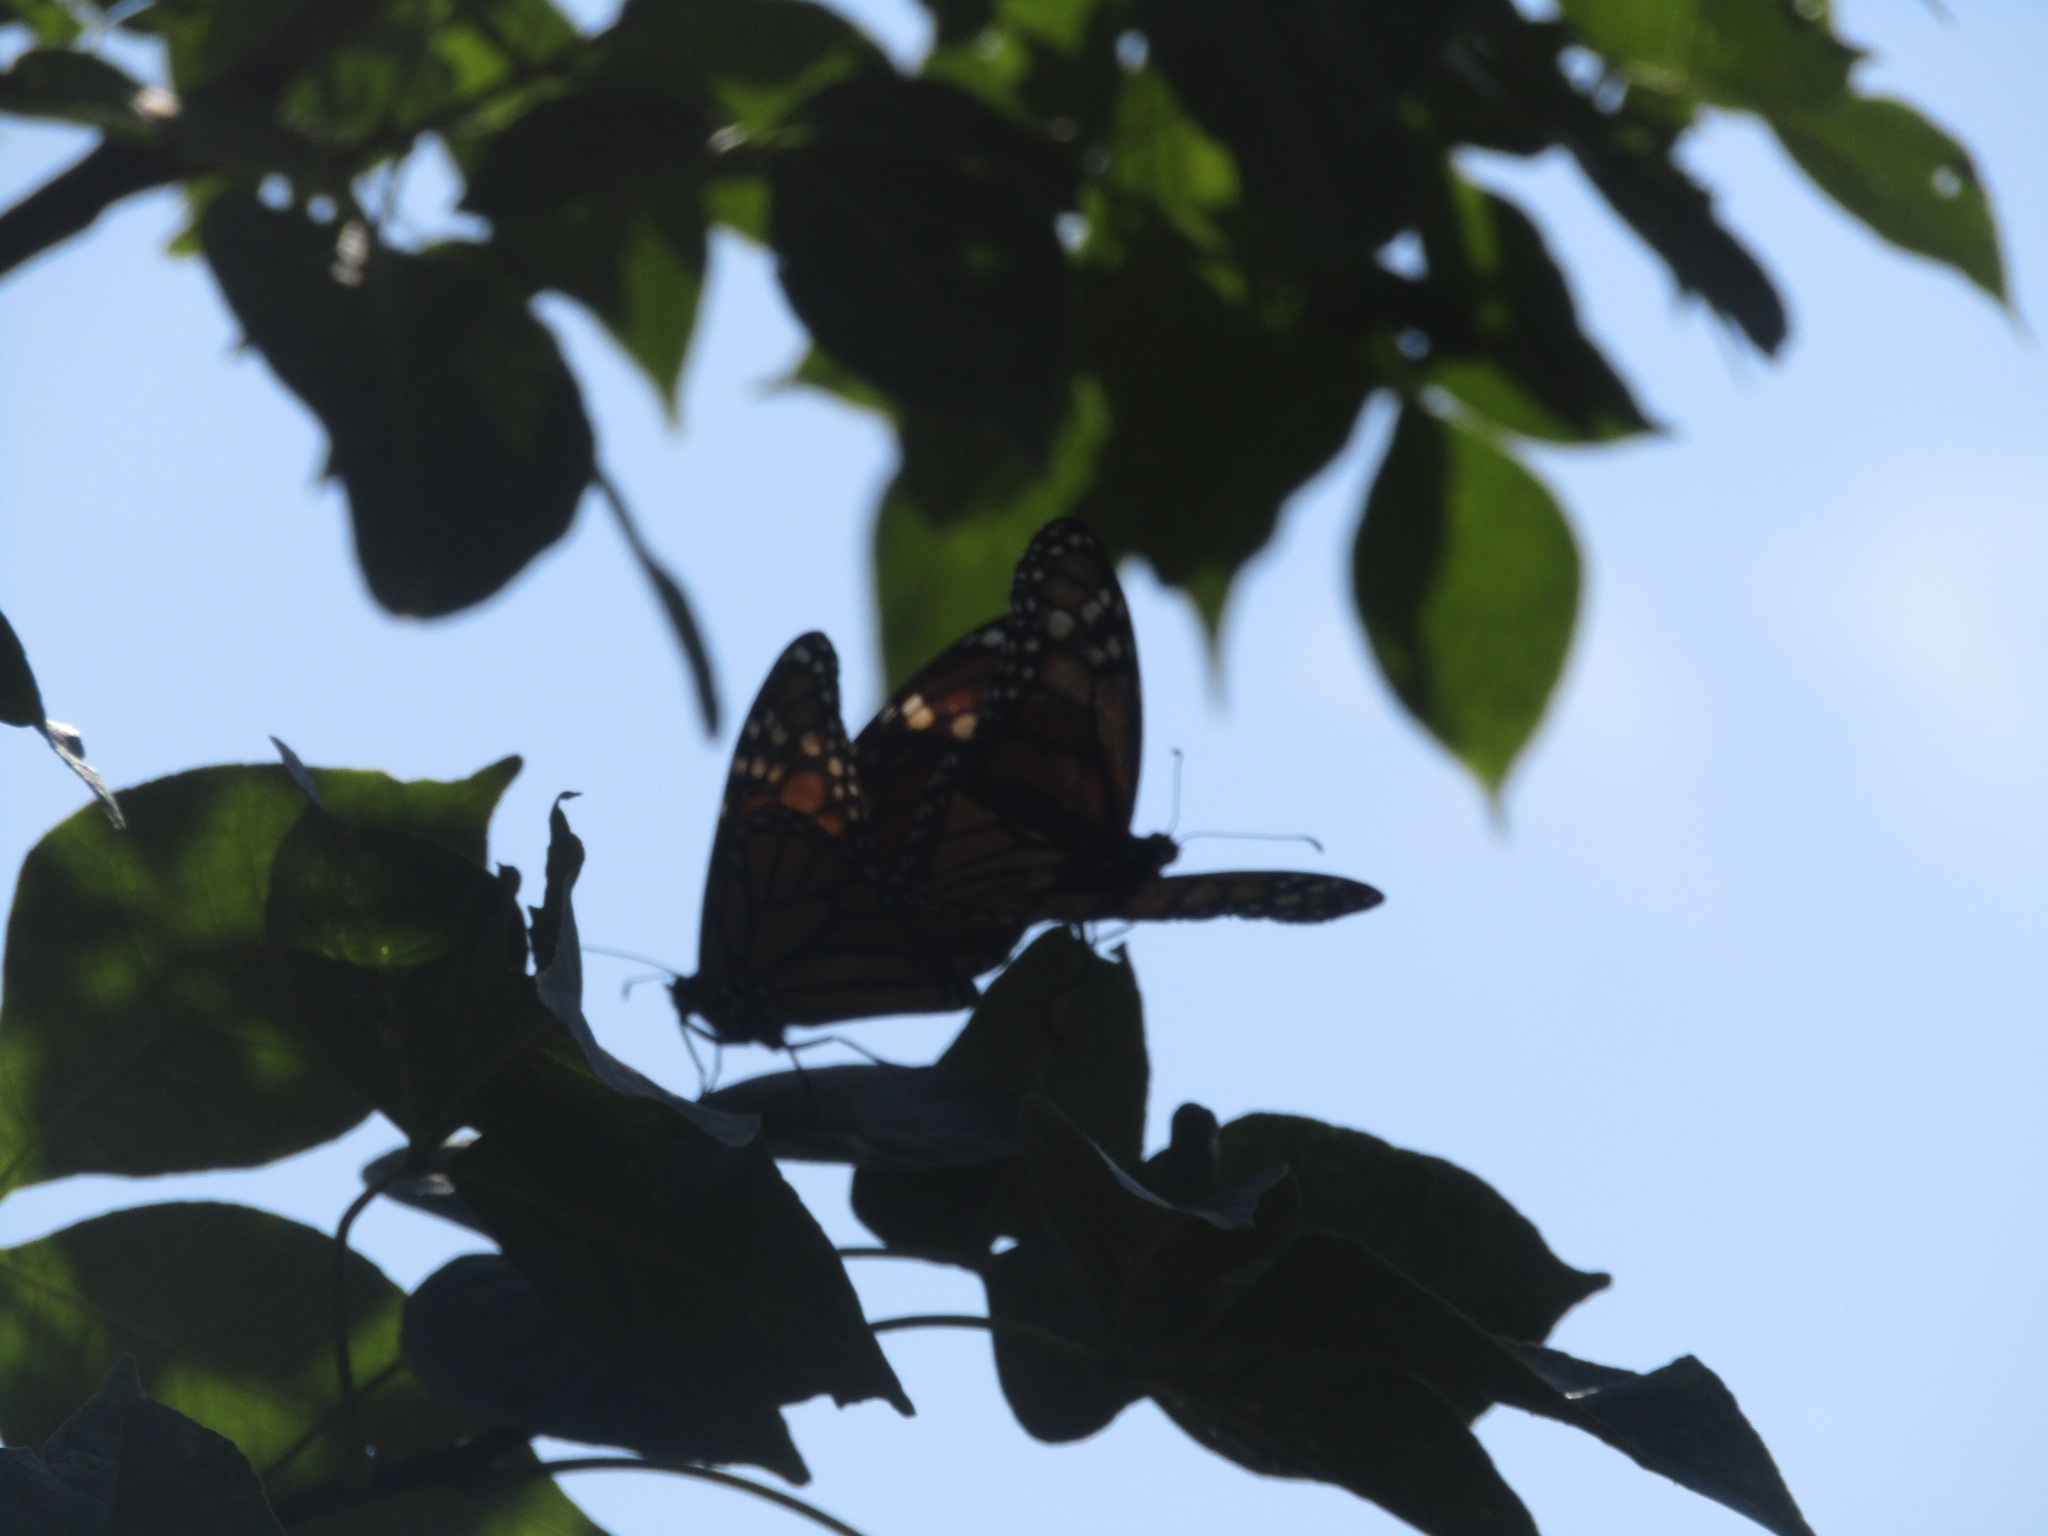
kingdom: Animalia
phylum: Arthropoda
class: Insecta
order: Lepidoptera
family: Nymphalidae
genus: Danaus
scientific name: Danaus plexippus
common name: Monarch
